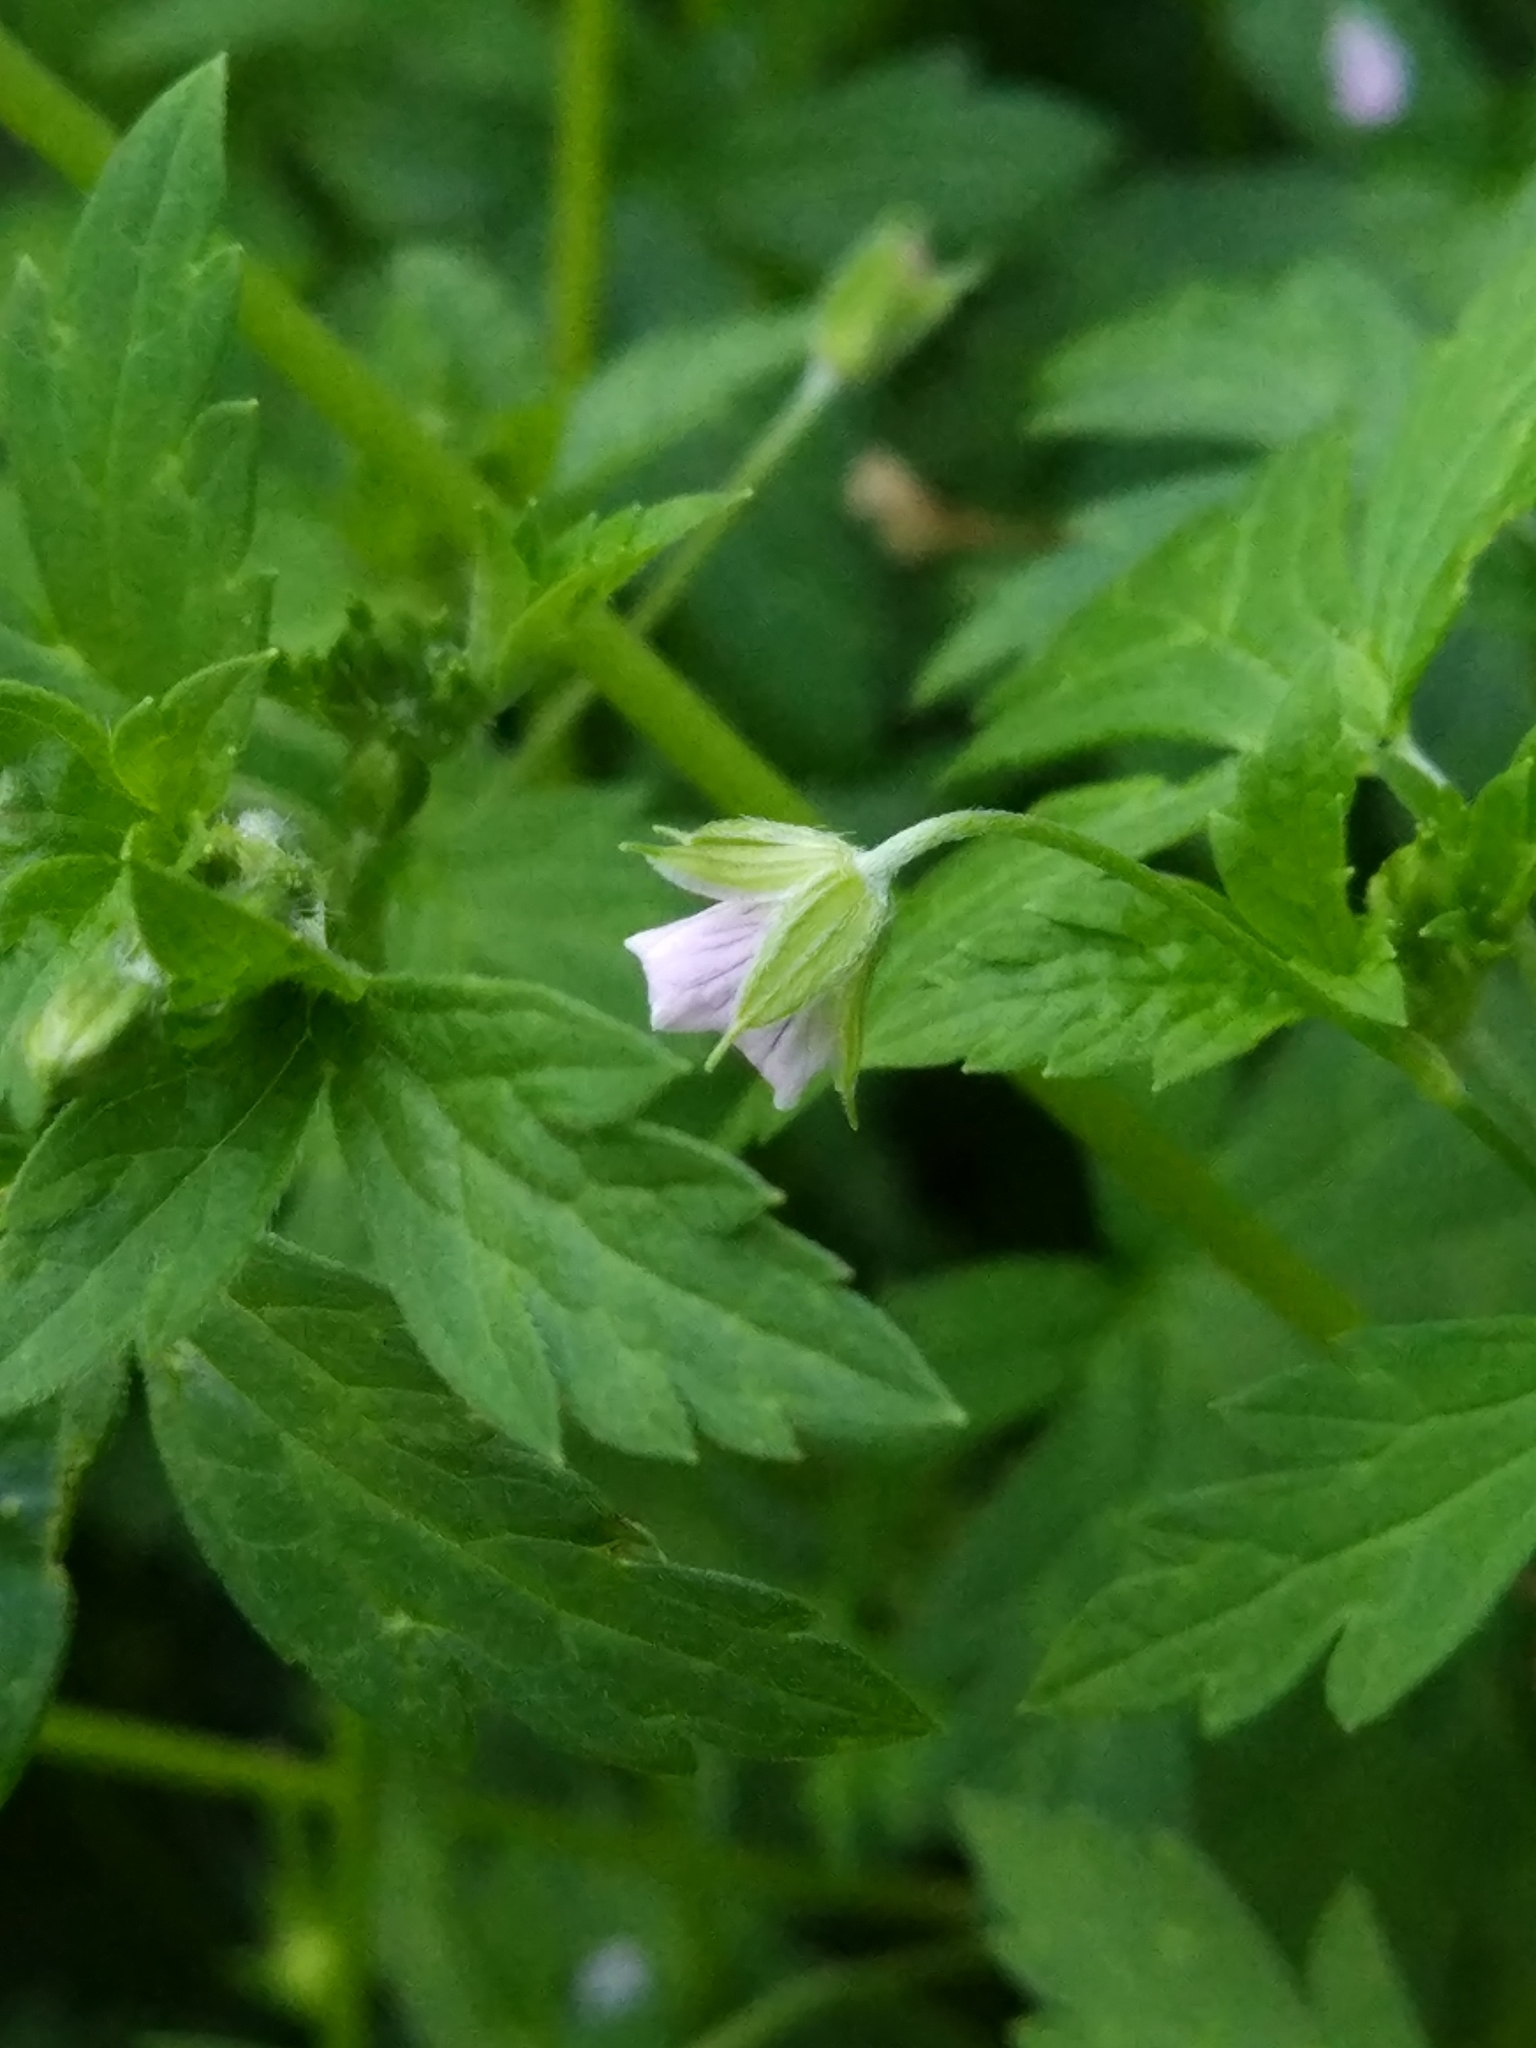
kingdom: Plantae
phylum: Tracheophyta
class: Magnoliopsida
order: Geraniales
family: Geraniaceae
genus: Geranium
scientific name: Geranium sibiricum
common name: Siberian crane's-bill
